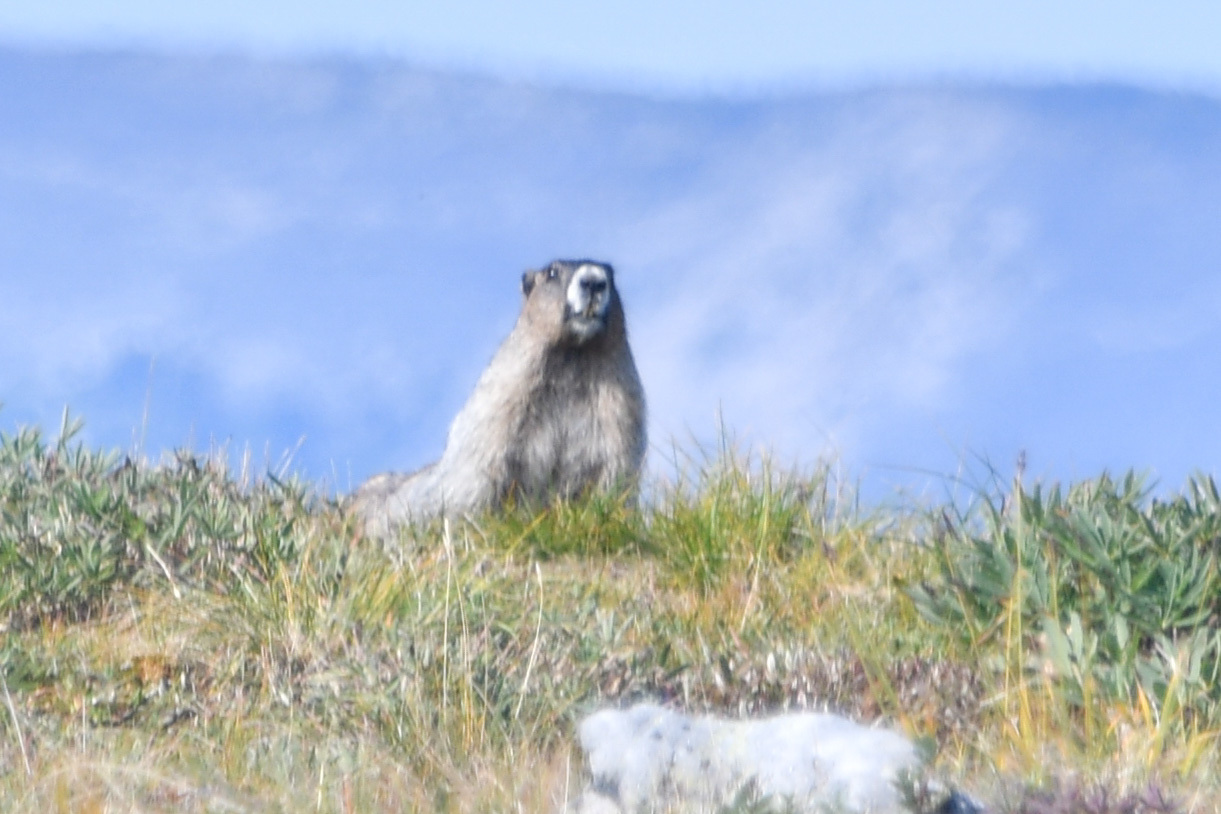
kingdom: Animalia
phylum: Chordata
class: Mammalia
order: Rodentia
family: Sciuridae
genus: Marmota
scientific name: Marmota caligata
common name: Hoary marmot
